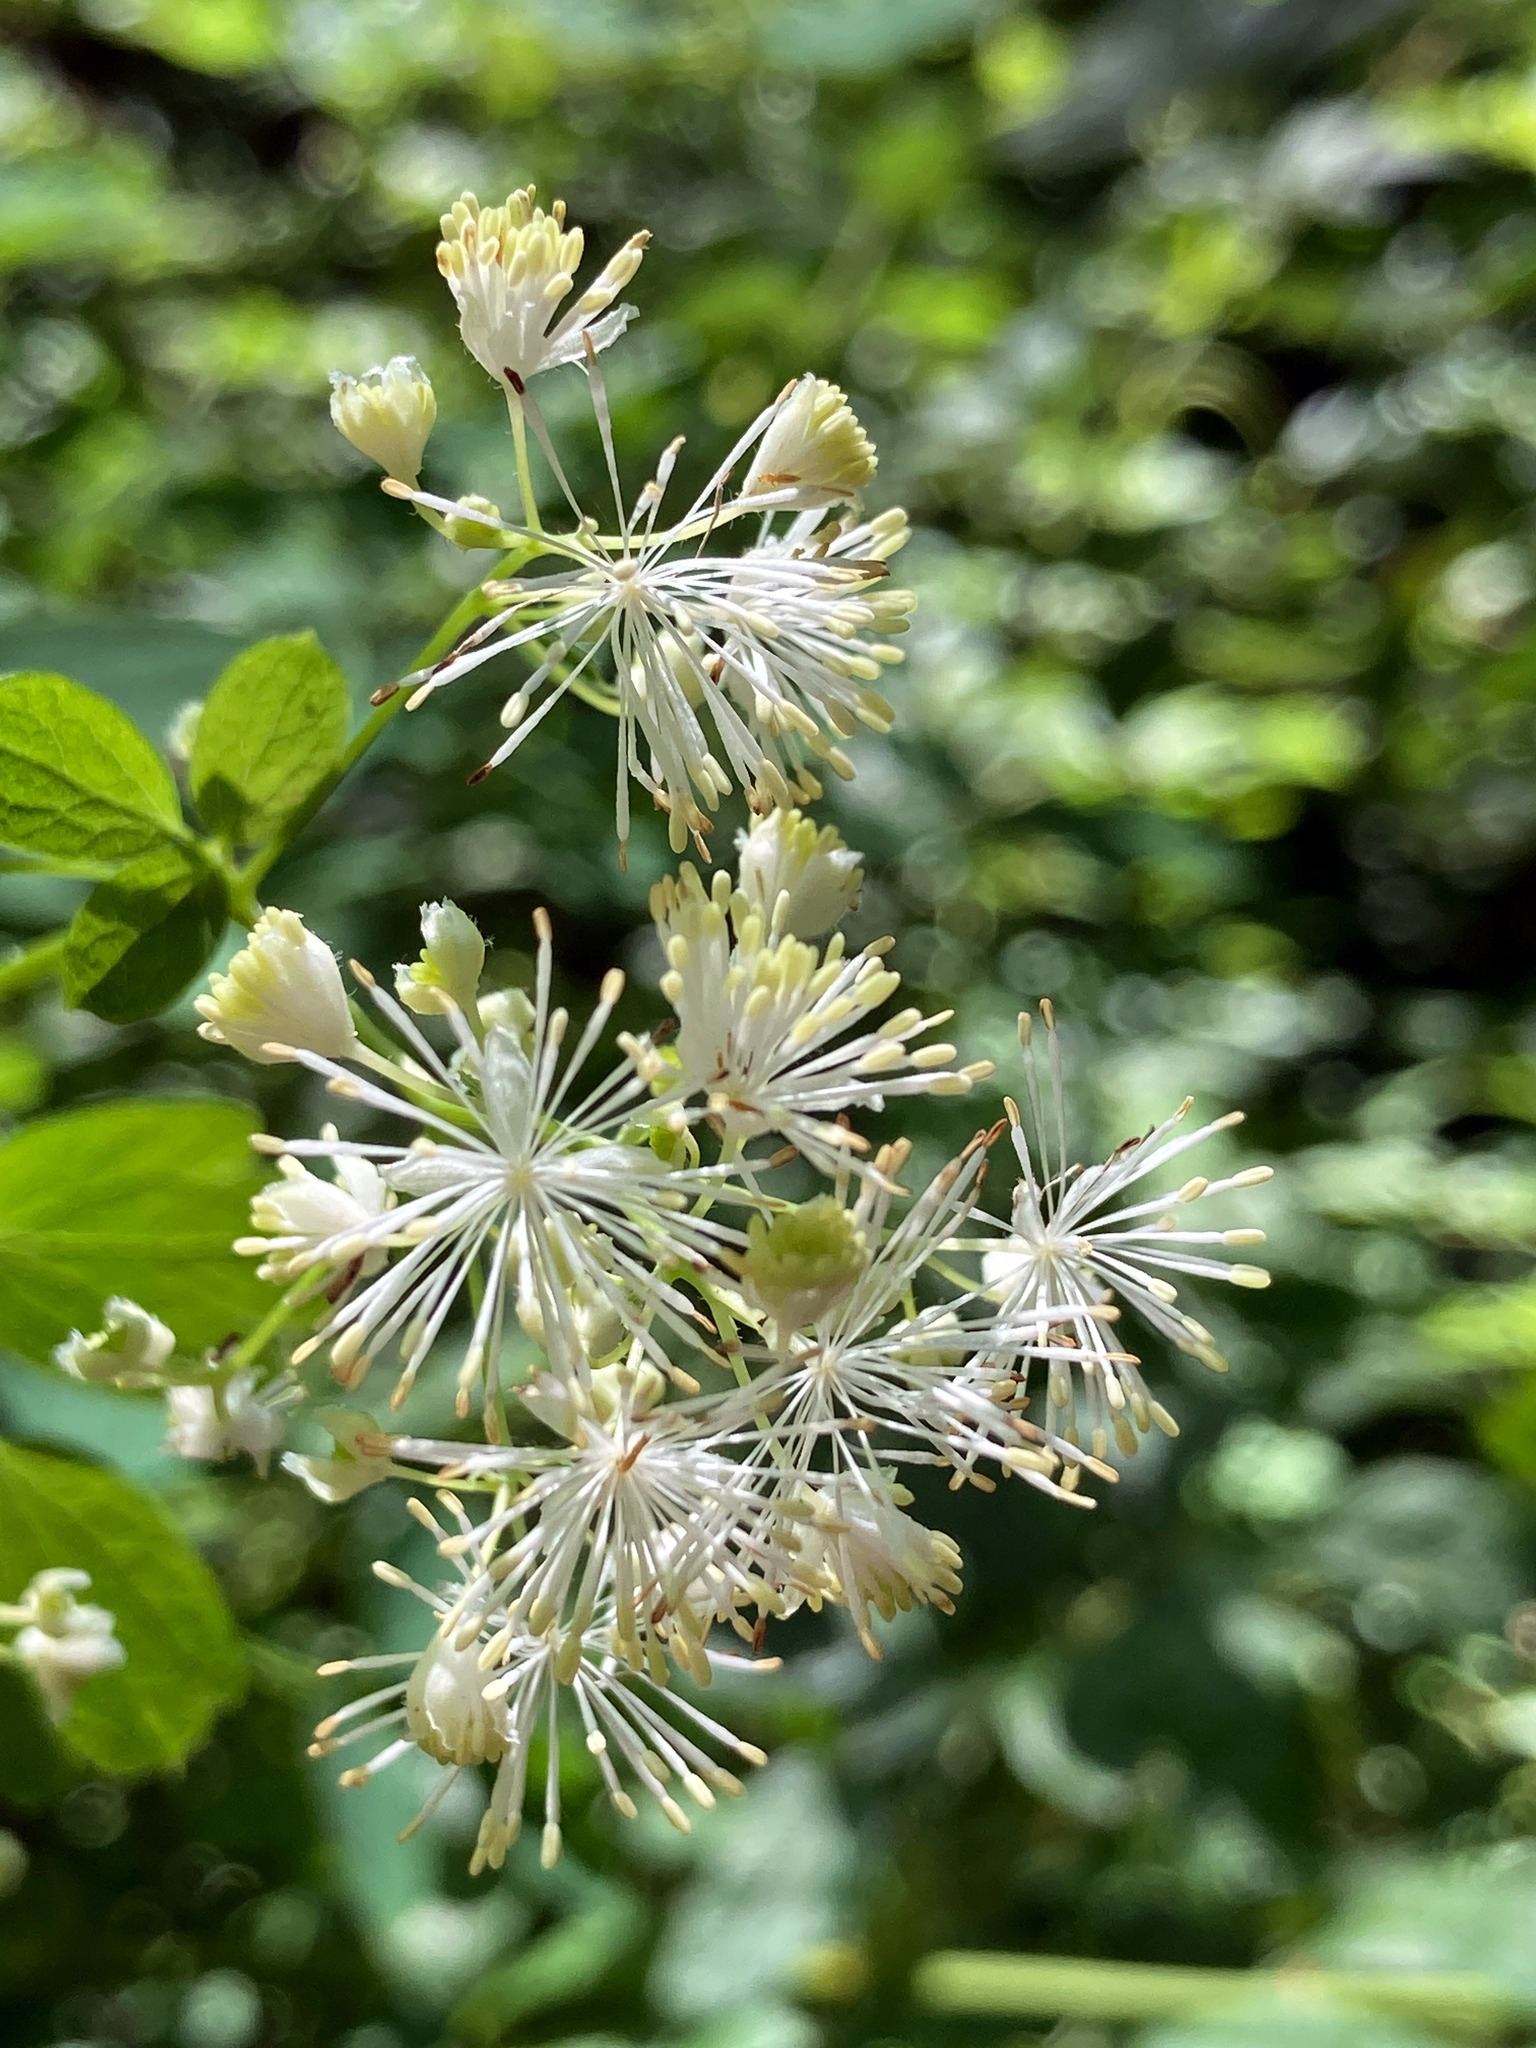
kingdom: Plantae
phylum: Tracheophyta
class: Magnoliopsida
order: Ranunculales
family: Ranunculaceae
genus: Thalictrum
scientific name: Thalictrum pubescens
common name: King-of-the-meadow
